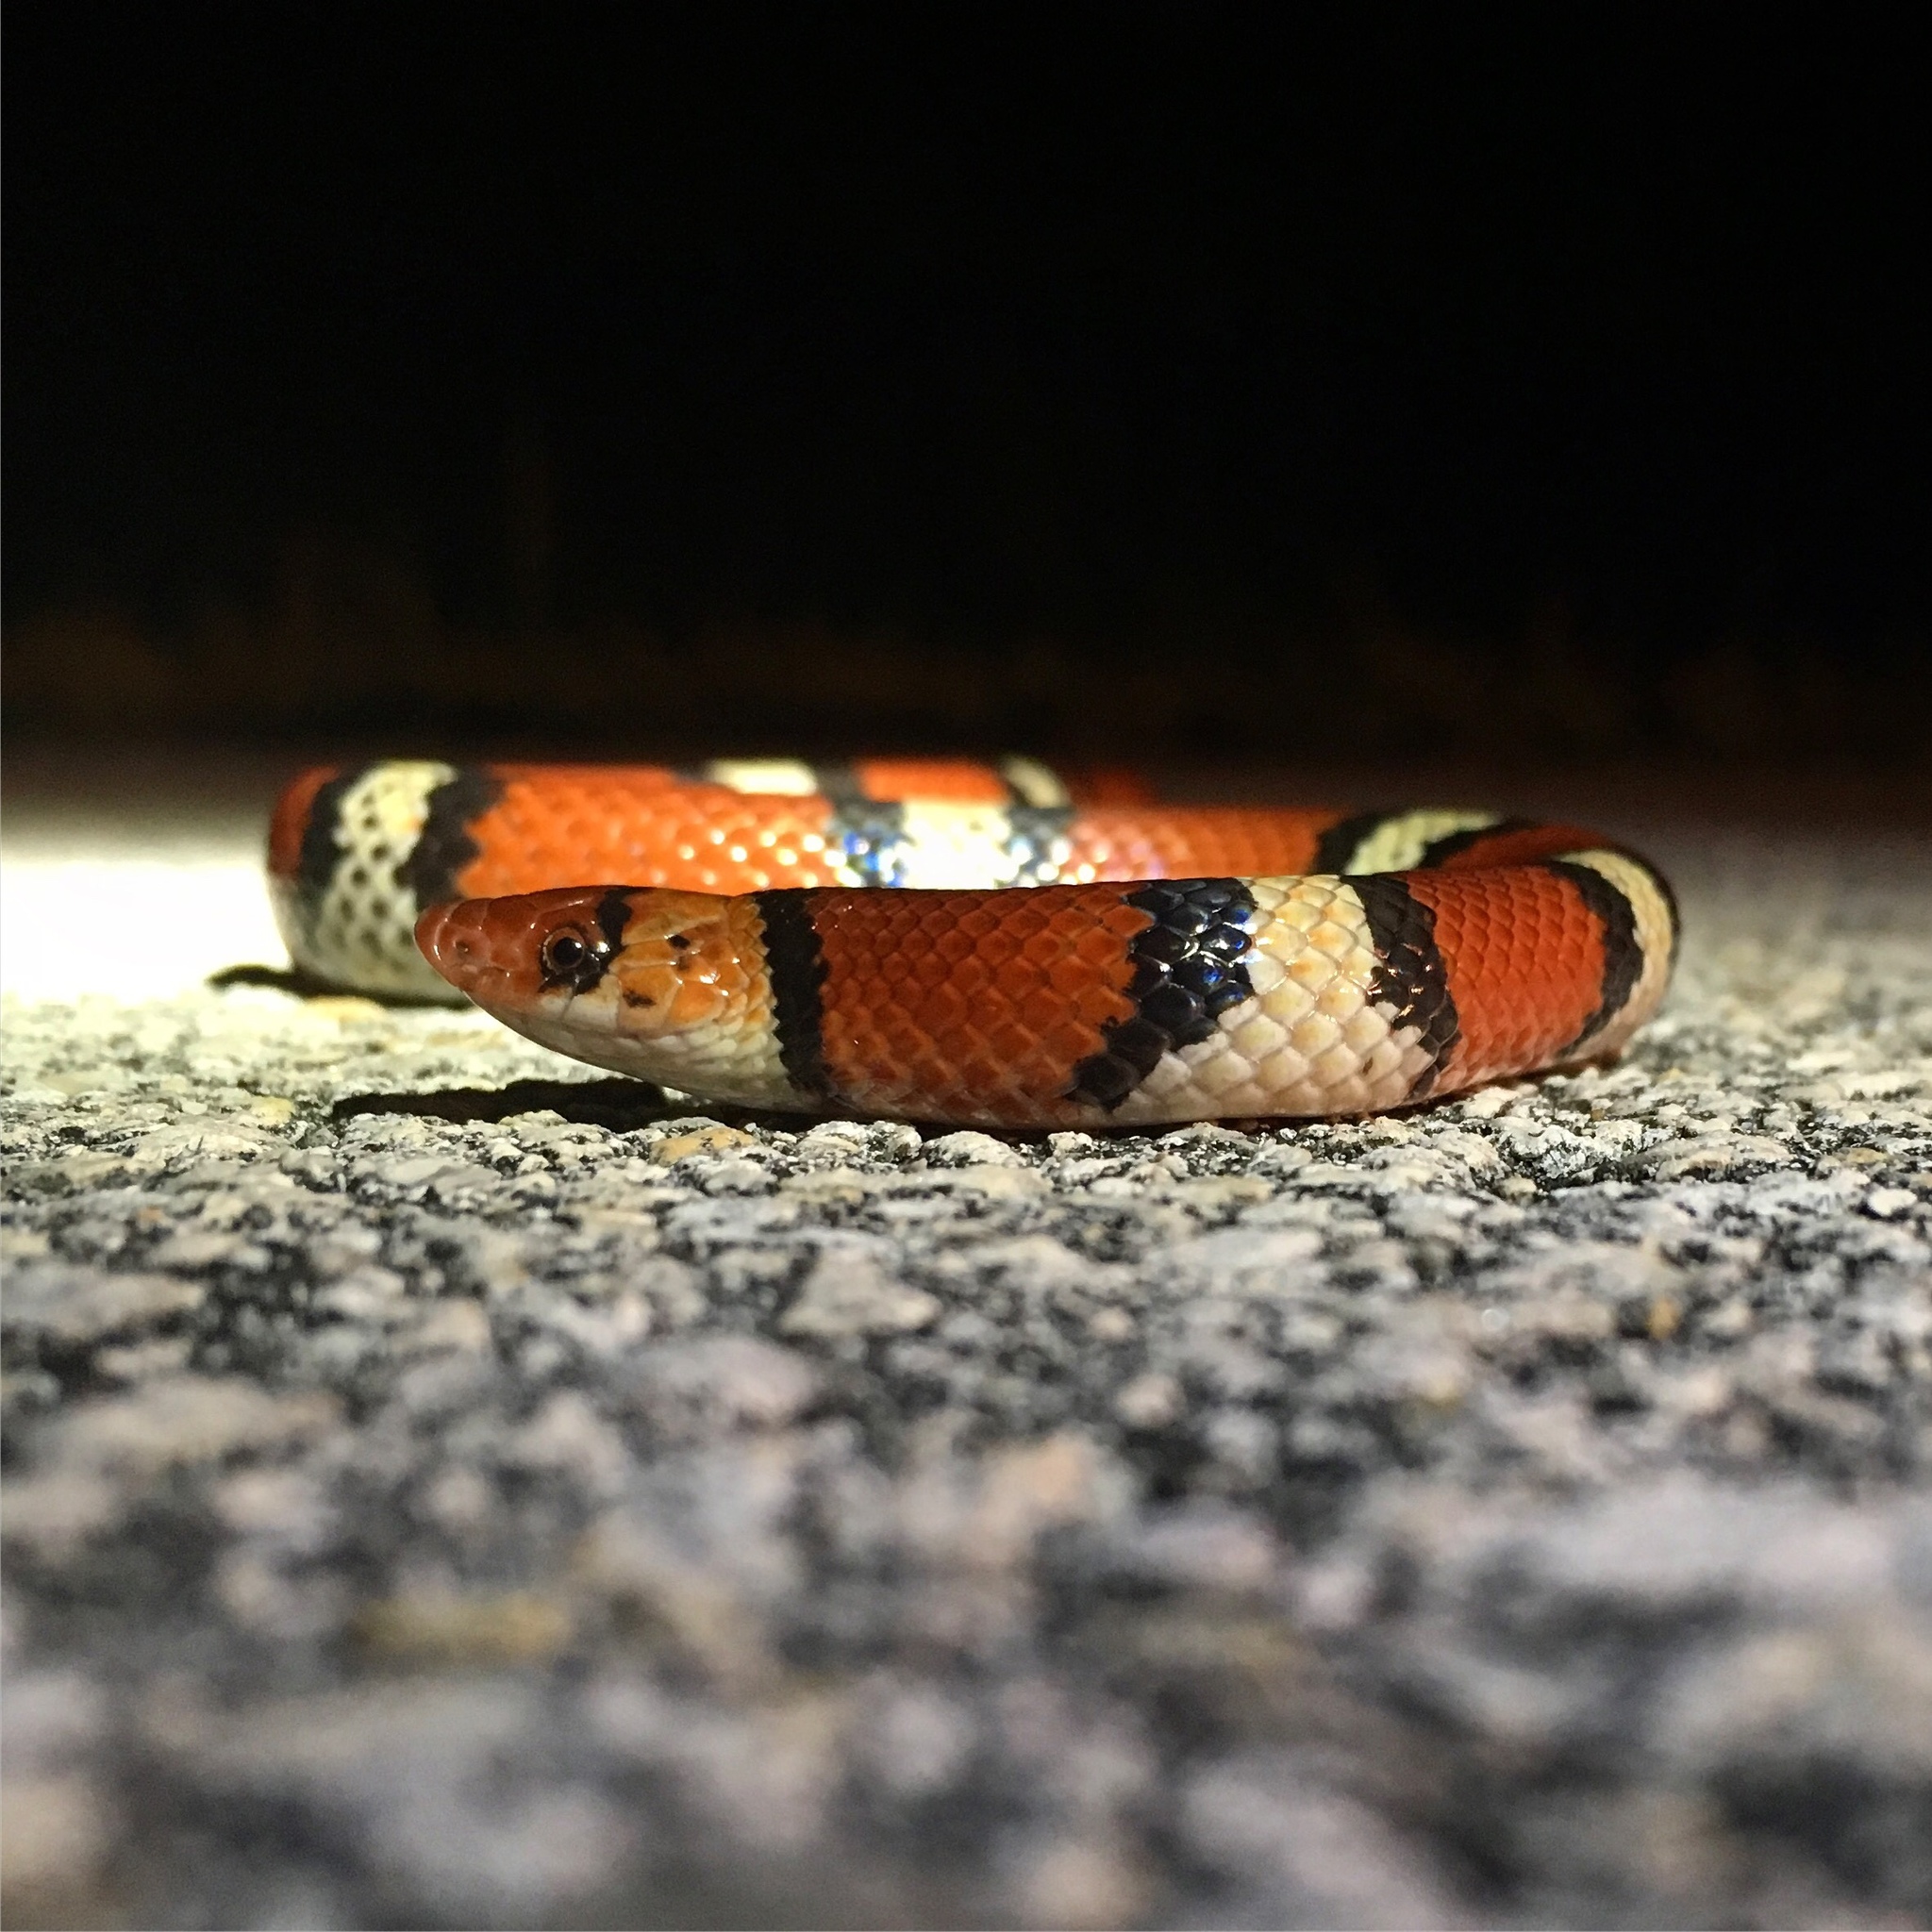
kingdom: Animalia
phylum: Chordata
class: Squamata
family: Colubridae
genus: Cemophora
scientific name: Cemophora coccinea
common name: Scarlet snake
